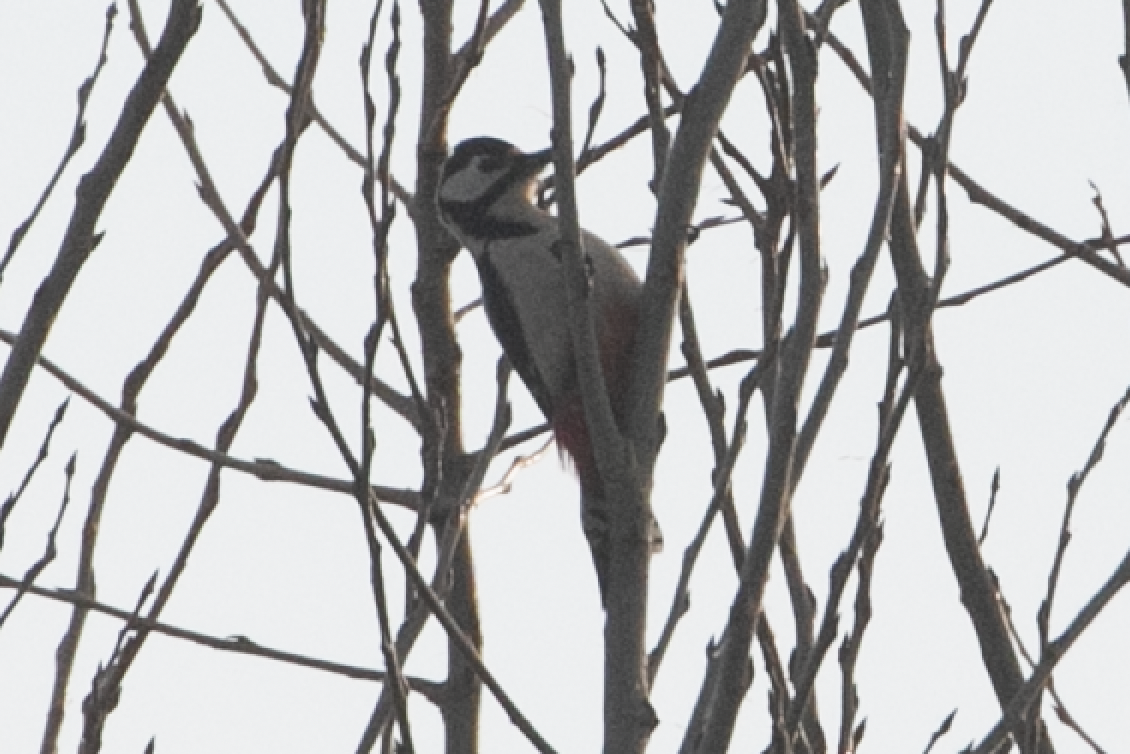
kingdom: Animalia
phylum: Chordata
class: Aves
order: Piciformes
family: Picidae
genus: Dendrocopos
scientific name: Dendrocopos major
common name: Great spotted woodpecker
